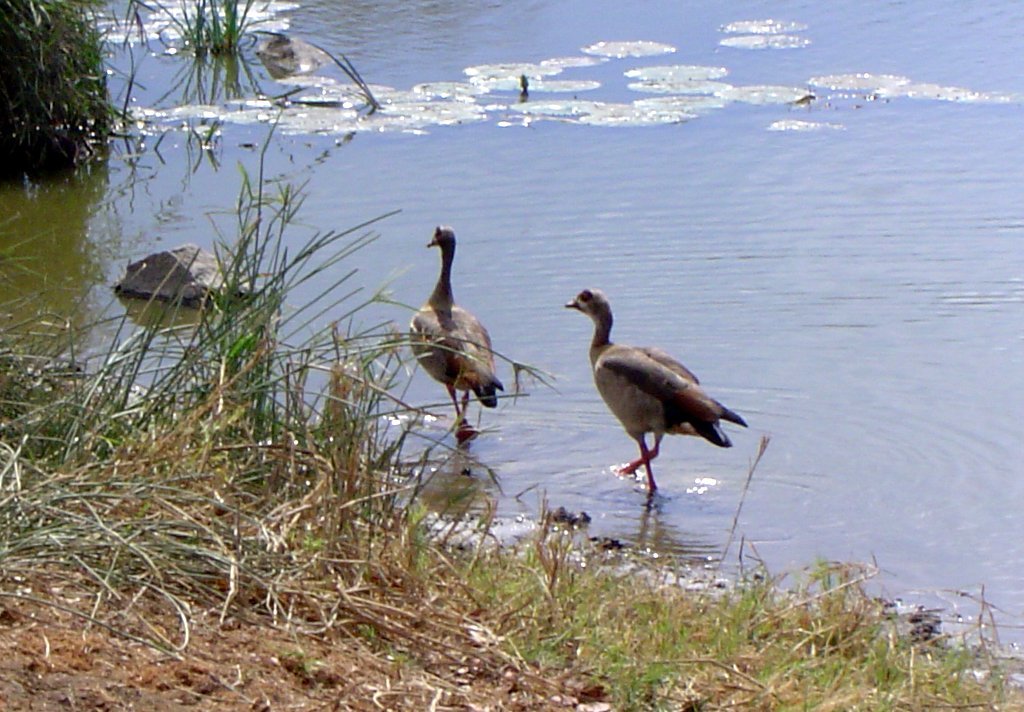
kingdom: Animalia
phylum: Chordata
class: Aves
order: Anseriformes
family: Anatidae
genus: Alopochen
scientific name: Alopochen aegyptiaca
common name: Egyptian goose
